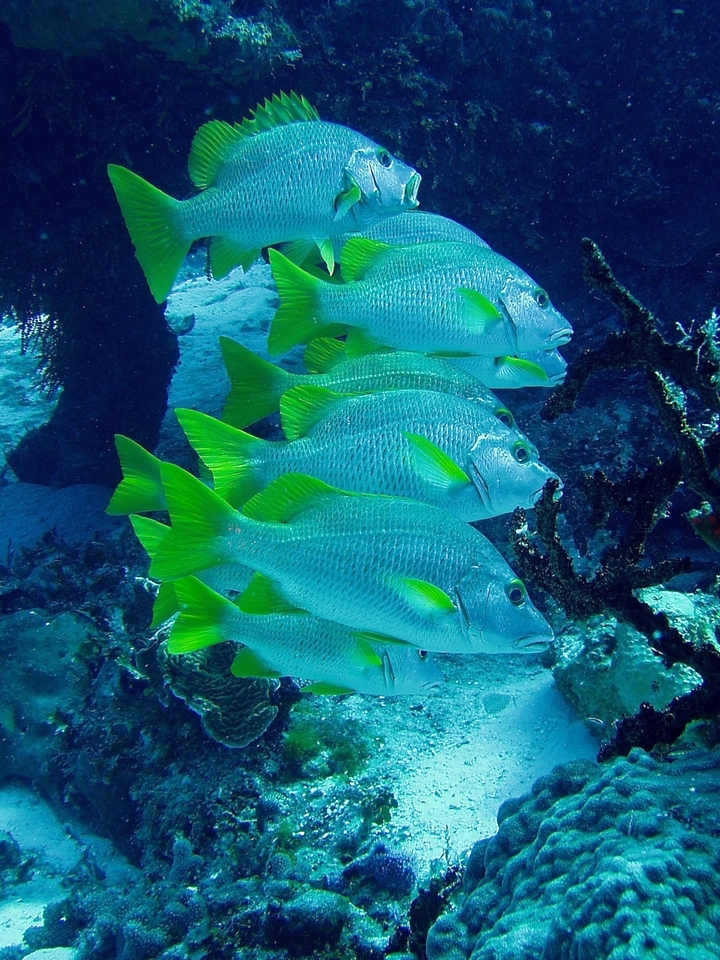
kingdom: Animalia
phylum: Chordata
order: Perciformes
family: Lutjanidae
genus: Lutjanus
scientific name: Lutjanus apodus
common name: Schoolmaster
